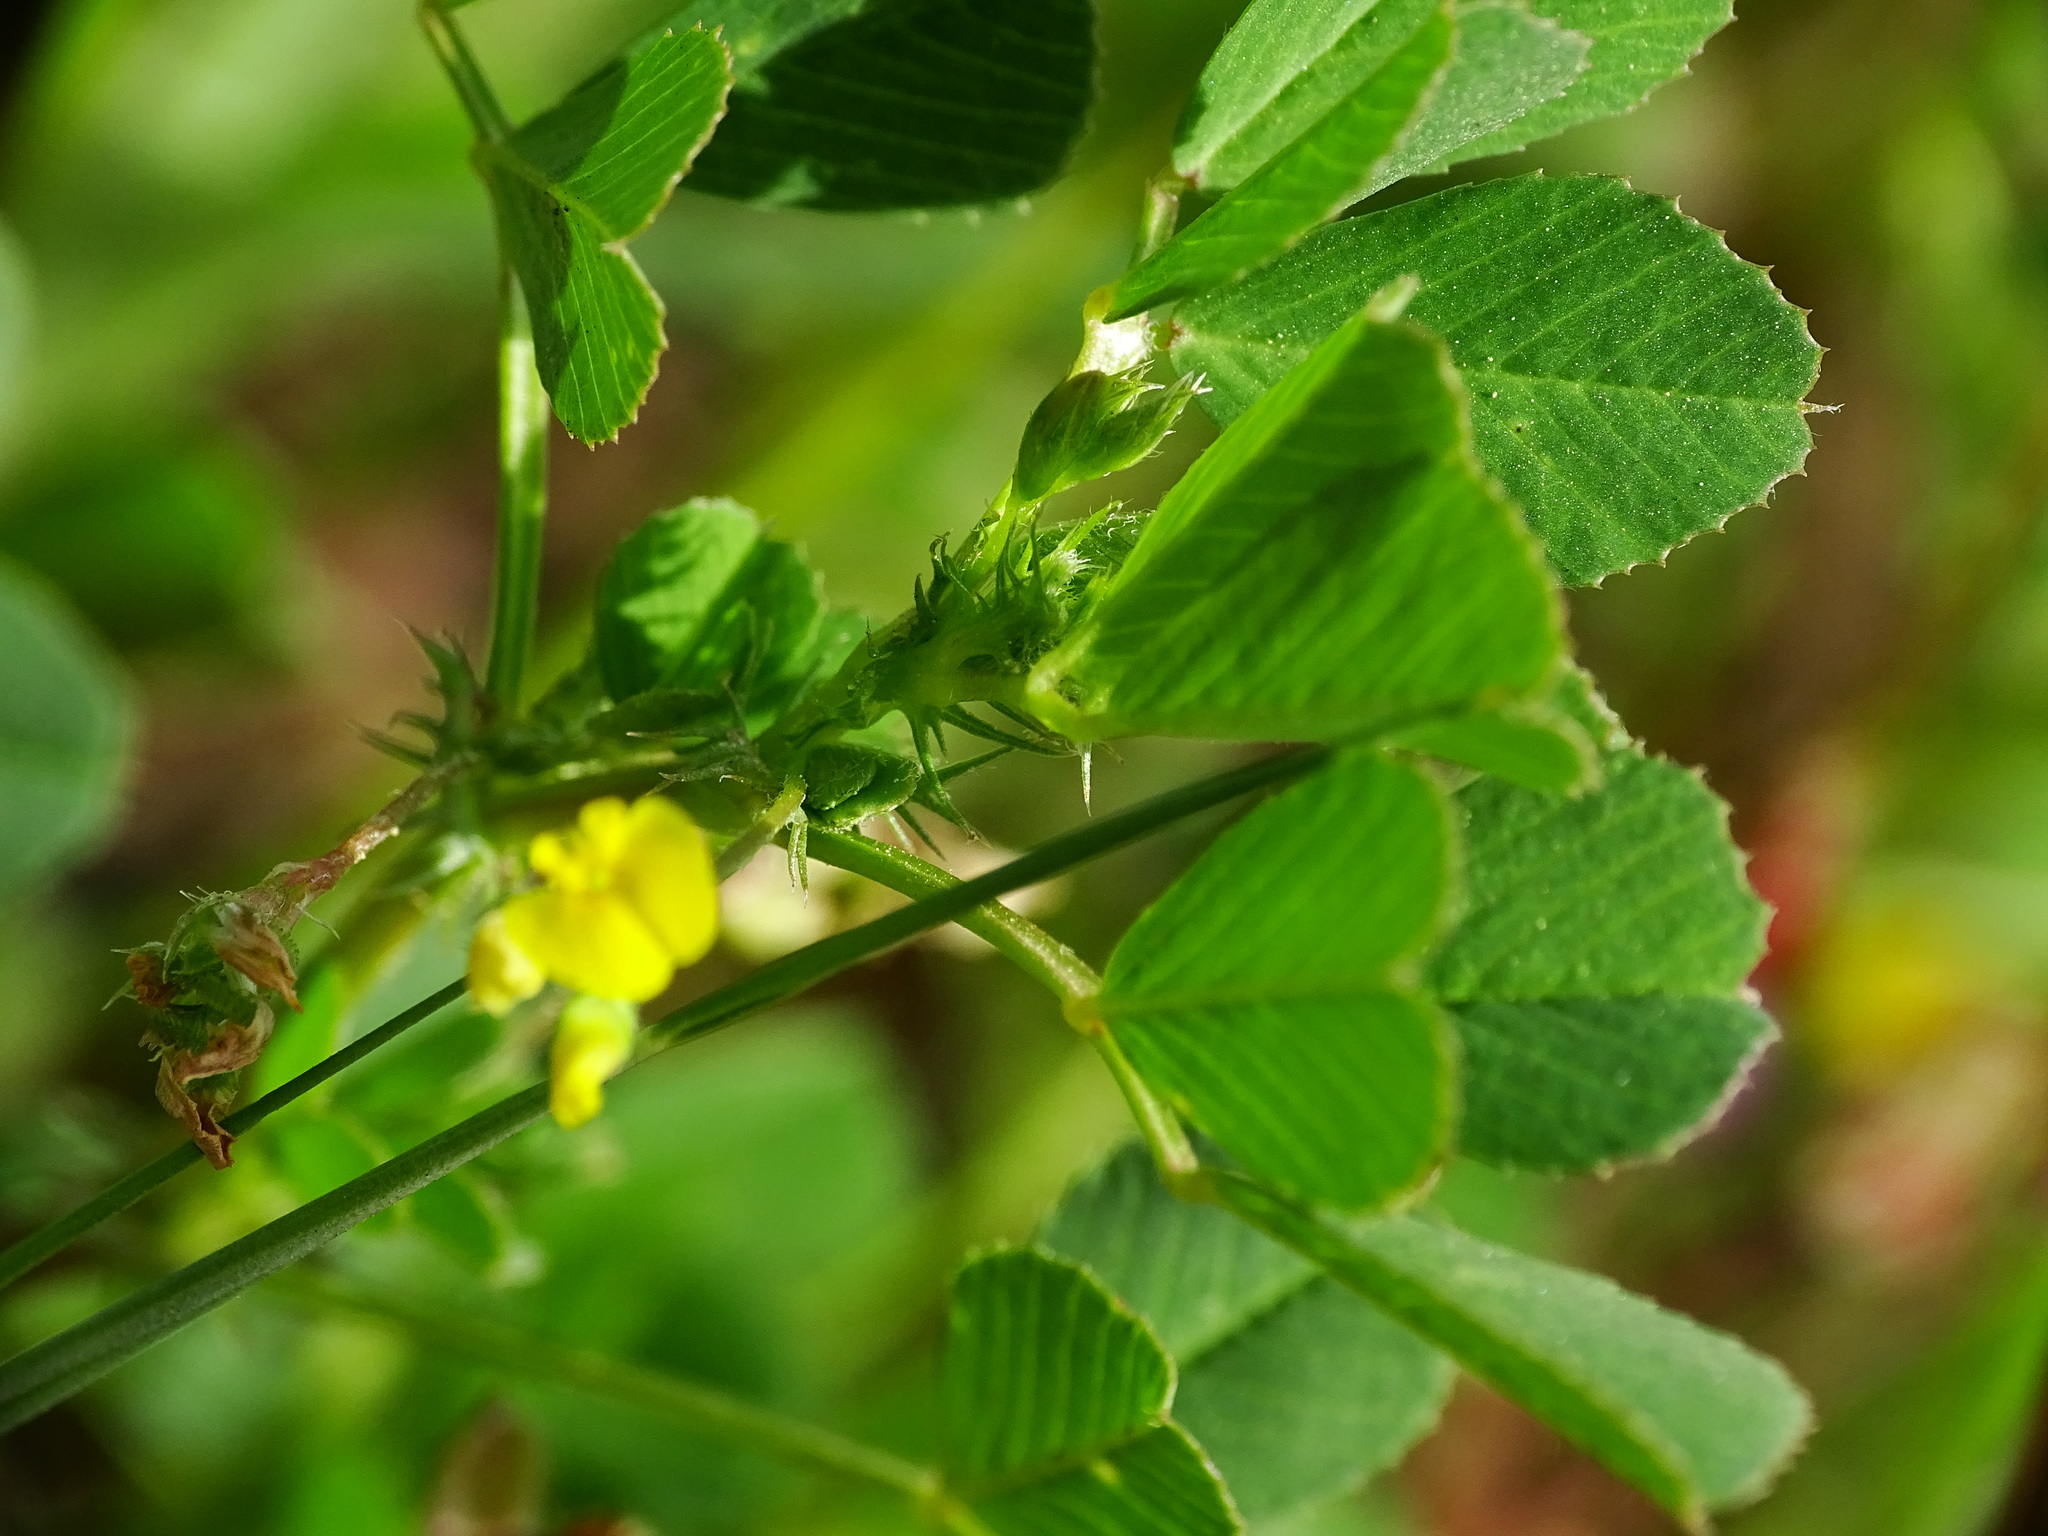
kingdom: Plantae
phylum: Tracheophyta
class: Magnoliopsida
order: Fabales
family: Fabaceae
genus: Medicago
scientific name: Medicago polymorpha
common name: Burclover
